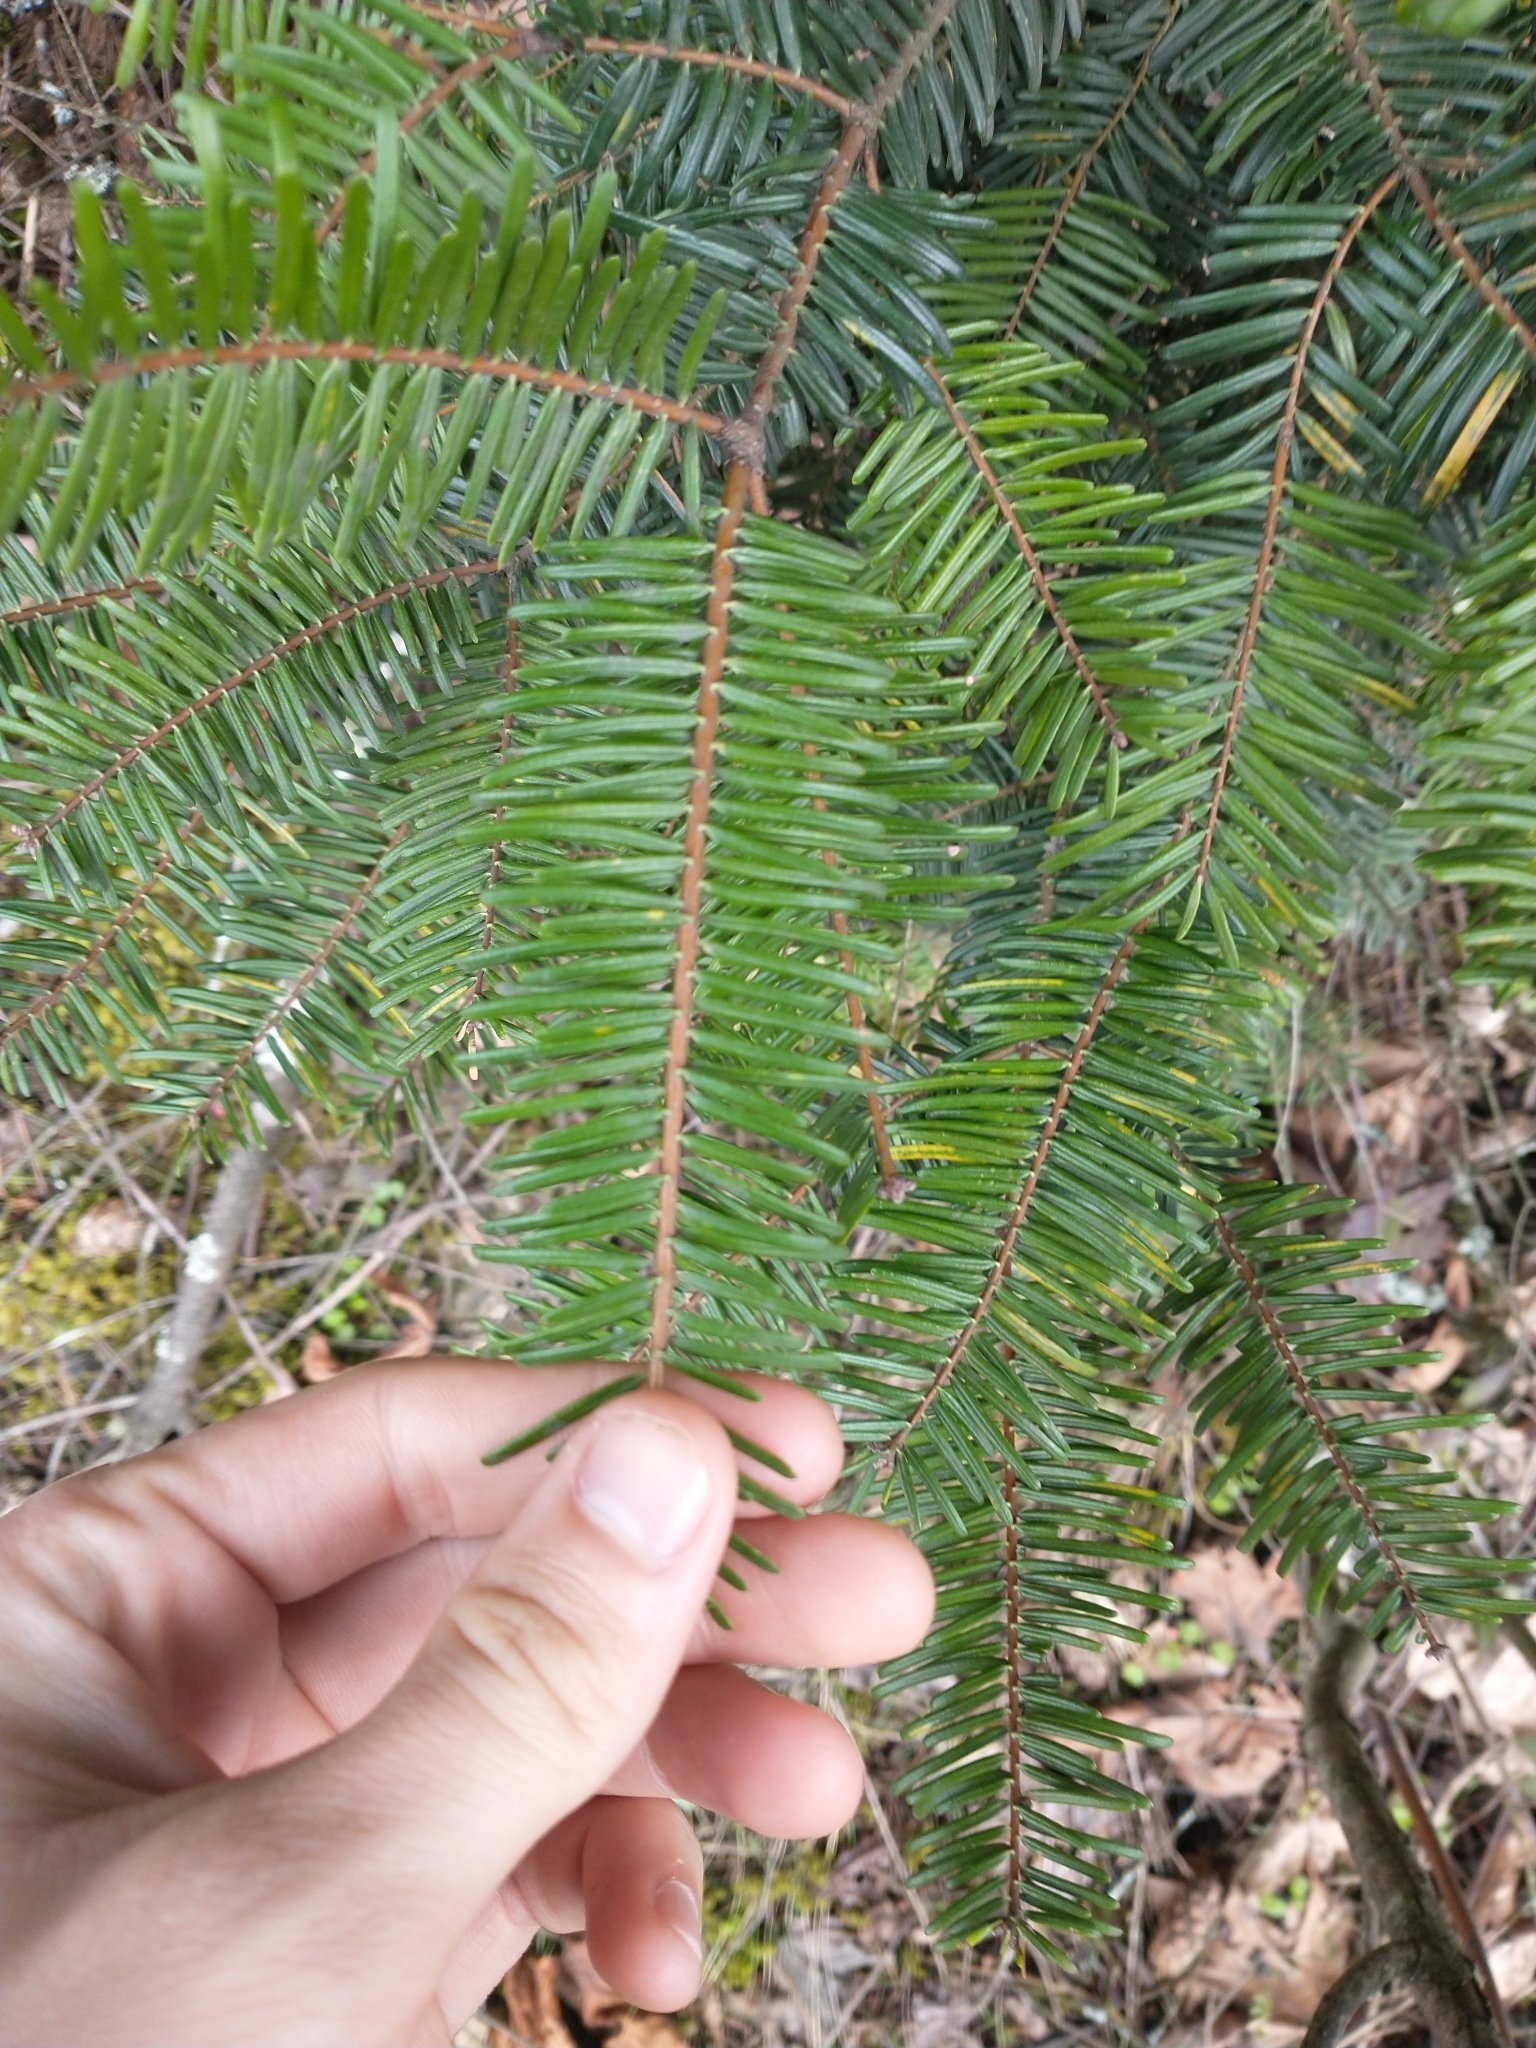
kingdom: Plantae
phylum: Tracheophyta
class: Pinopsida
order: Pinales
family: Pinaceae
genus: Abies
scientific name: Abies grandis
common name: Giant fir
